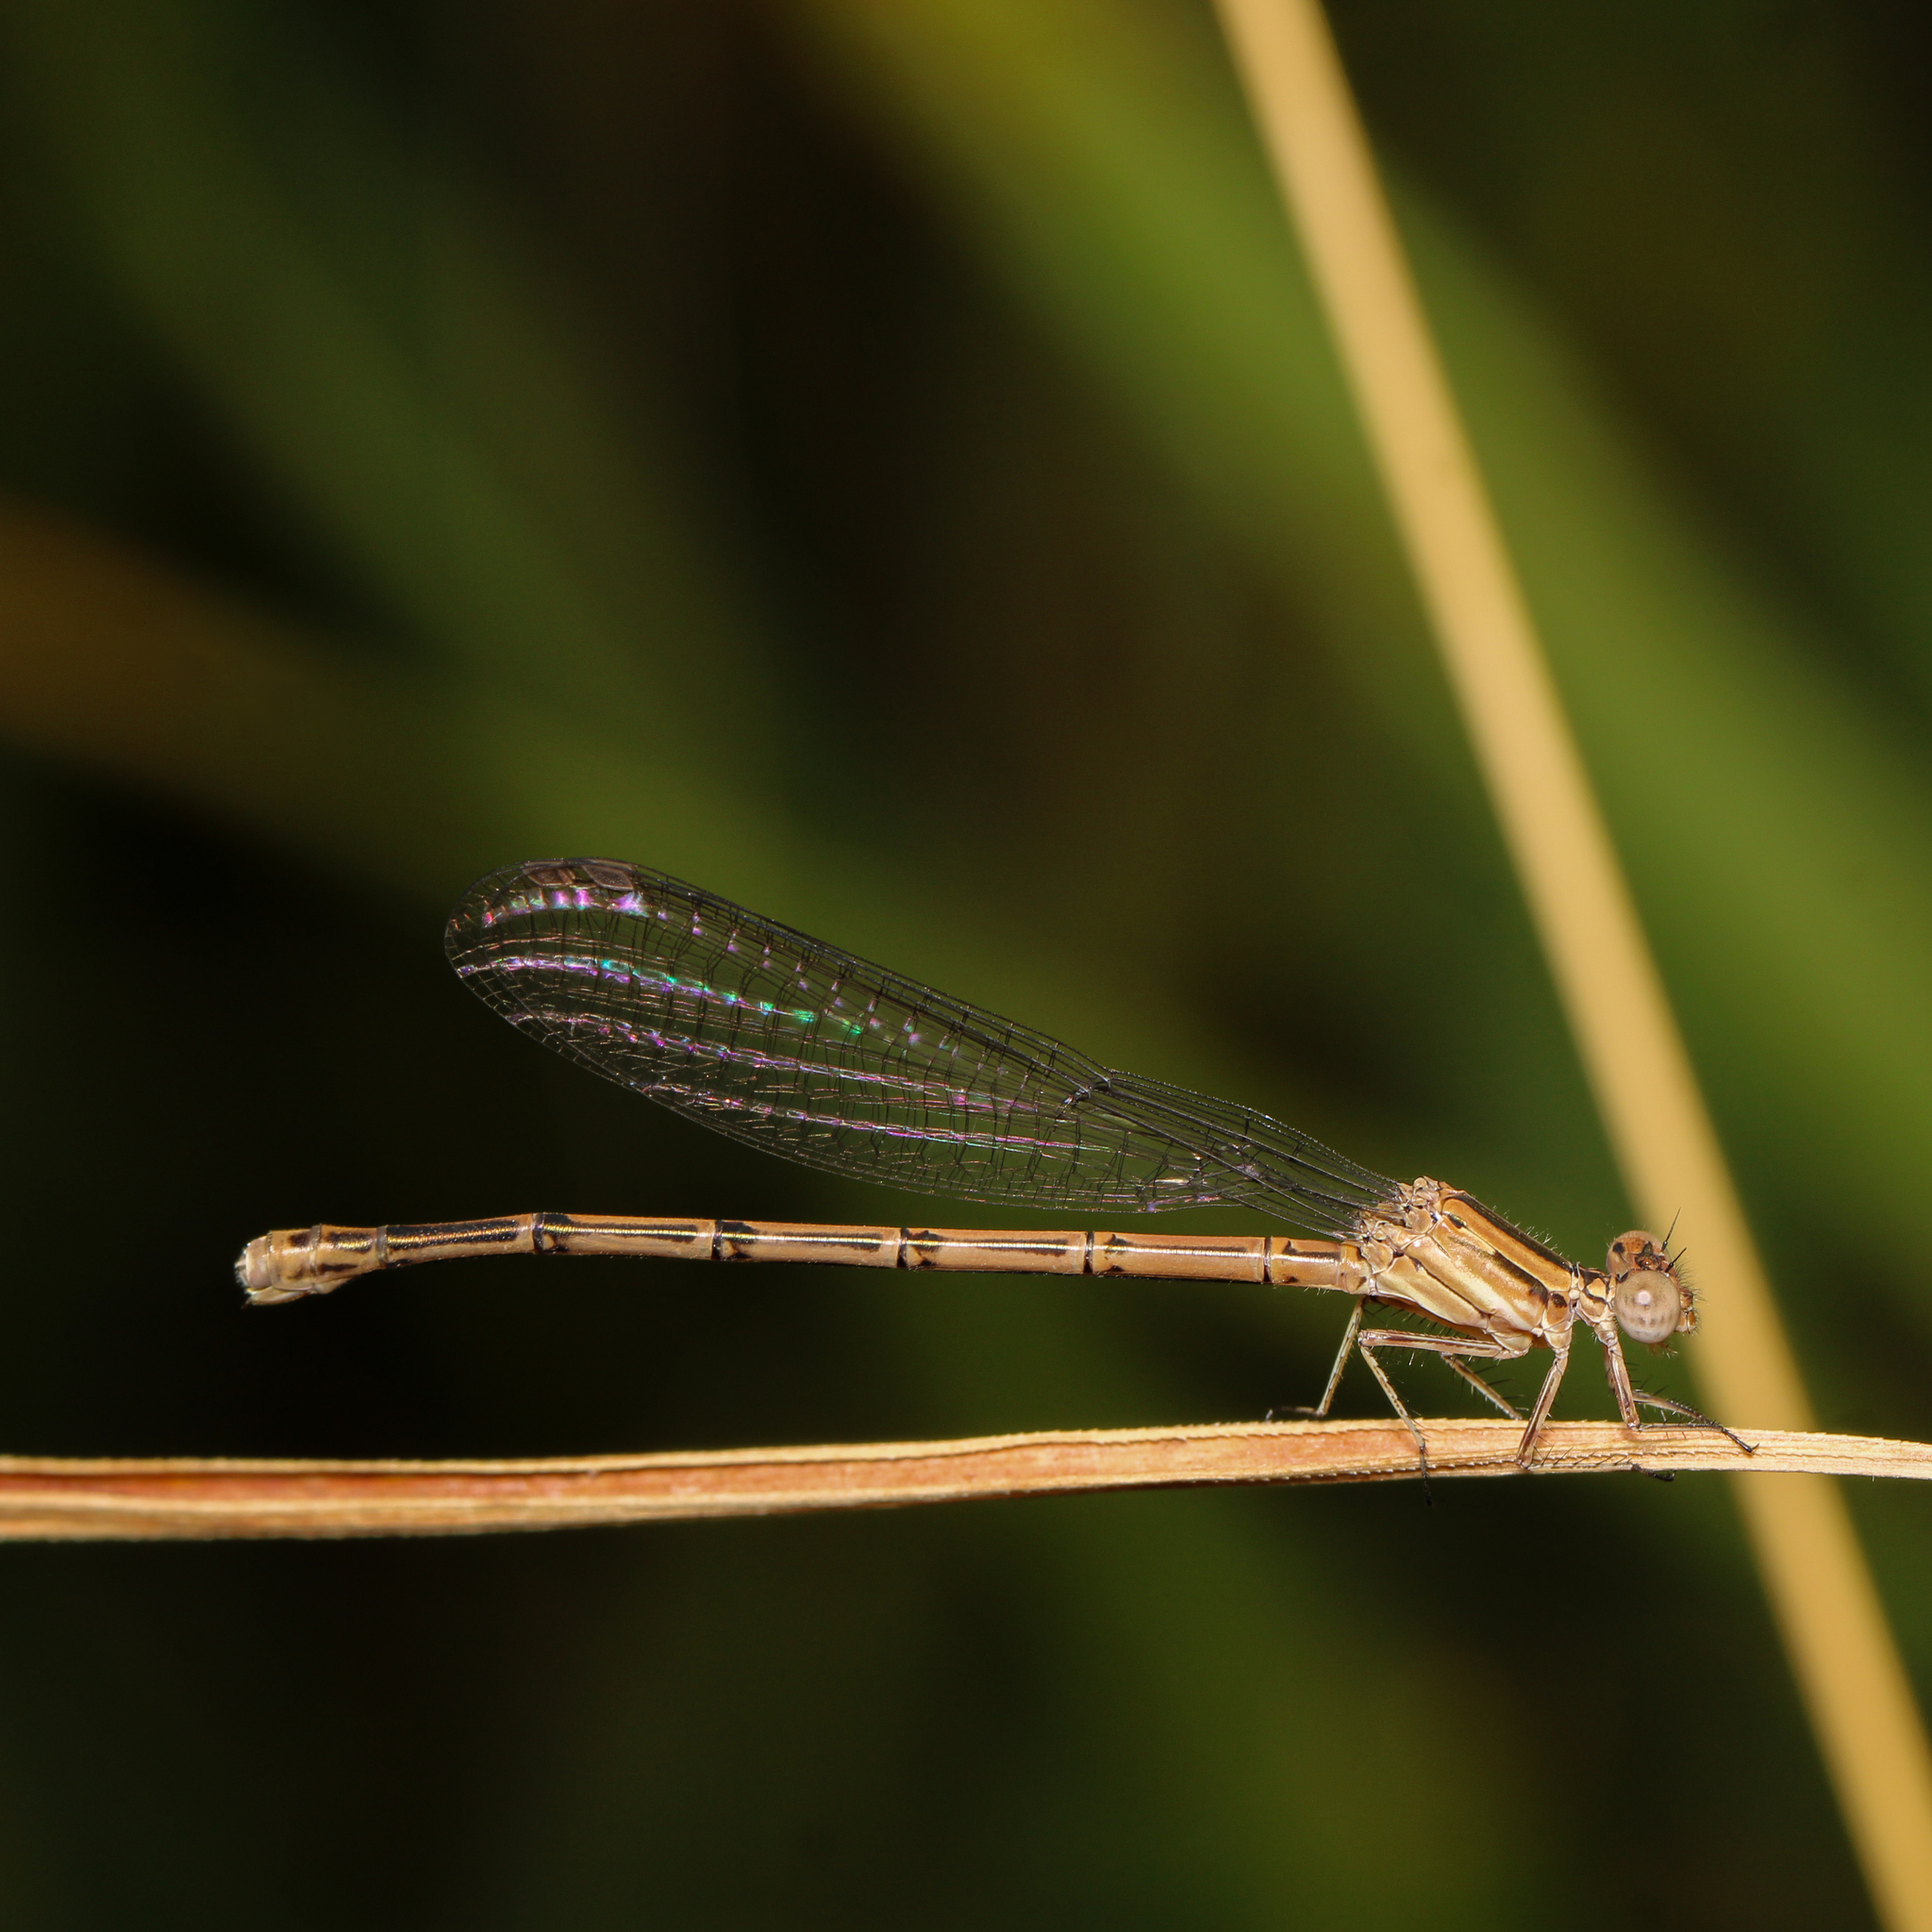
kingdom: Animalia
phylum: Arthropoda
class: Insecta
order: Odonata
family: Coenagrionidae
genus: Argia
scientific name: Argia fumipennis
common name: Variable dancer
